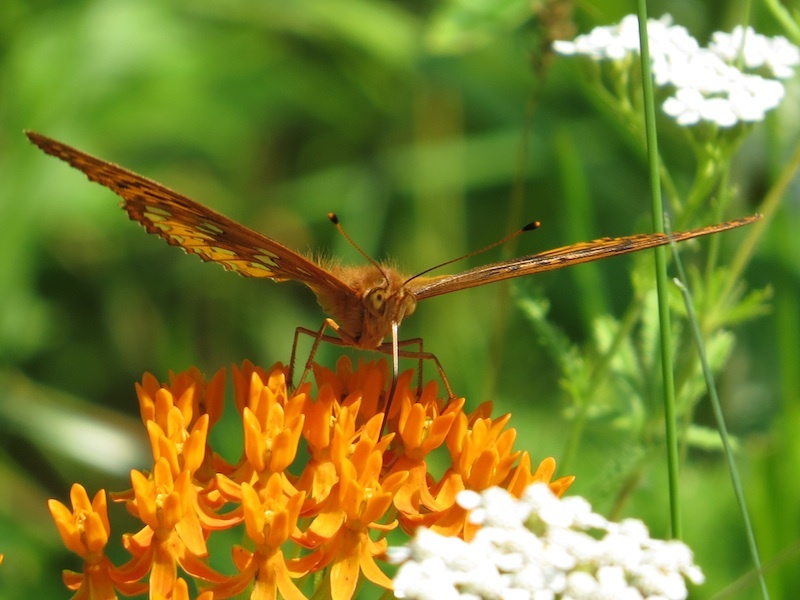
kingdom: Animalia
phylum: Arthropoda
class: Insecta
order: Lepidoptera
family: Nymphalidae
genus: Speyeria
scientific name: Speyeria cybele
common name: Great spangled fritillary
